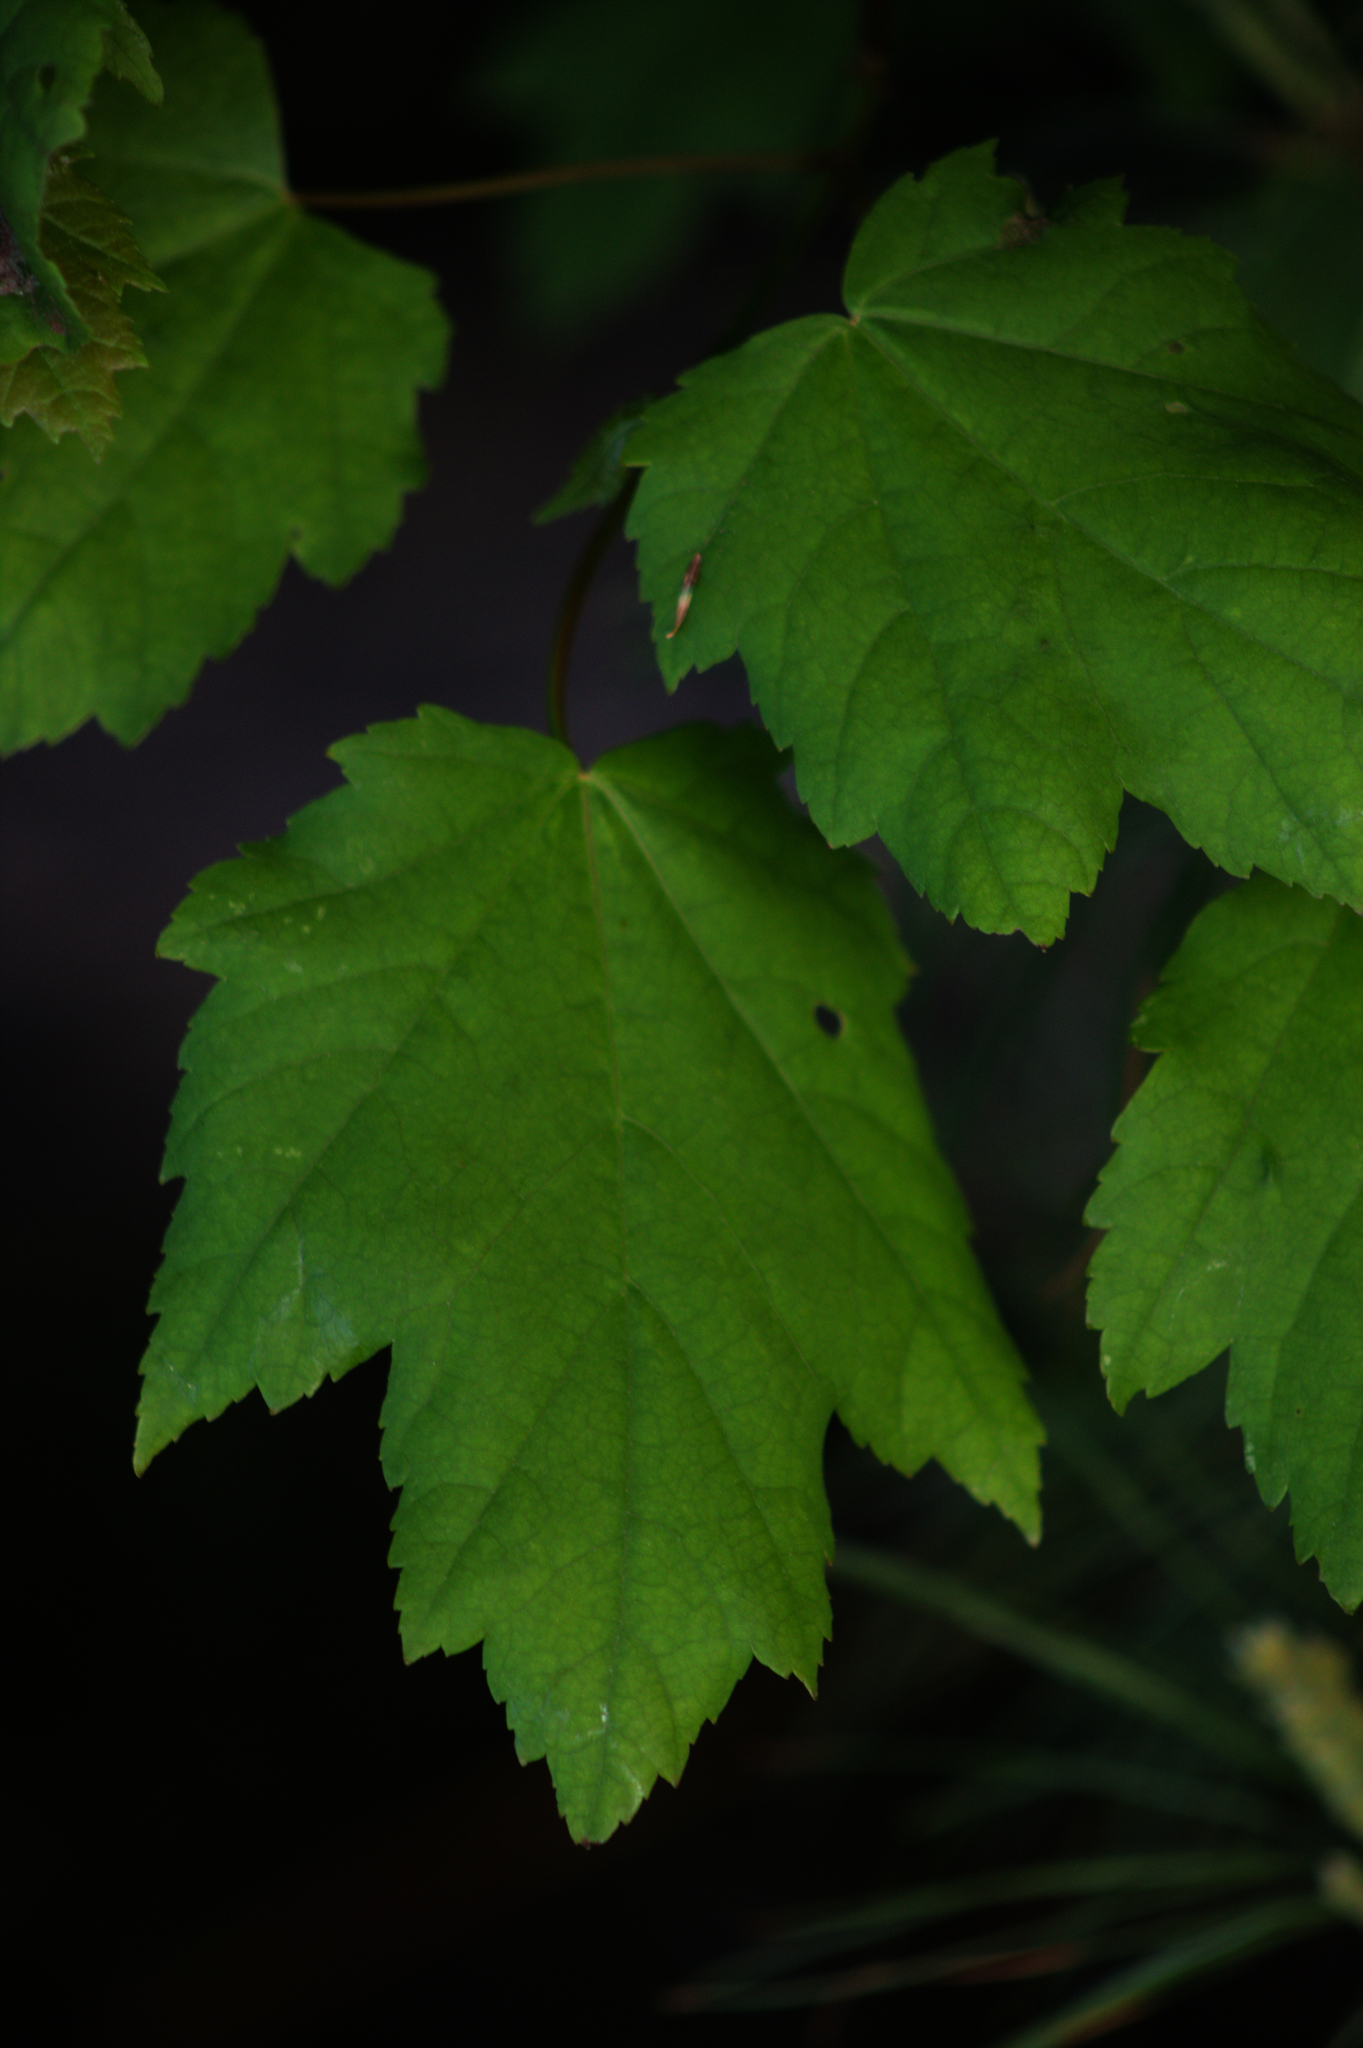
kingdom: Plantae
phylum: Tracheophyta
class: Magnoliopsida
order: Sapindales
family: Sapindaceae
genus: Acer
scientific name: Acer rubrum
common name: Red maple
